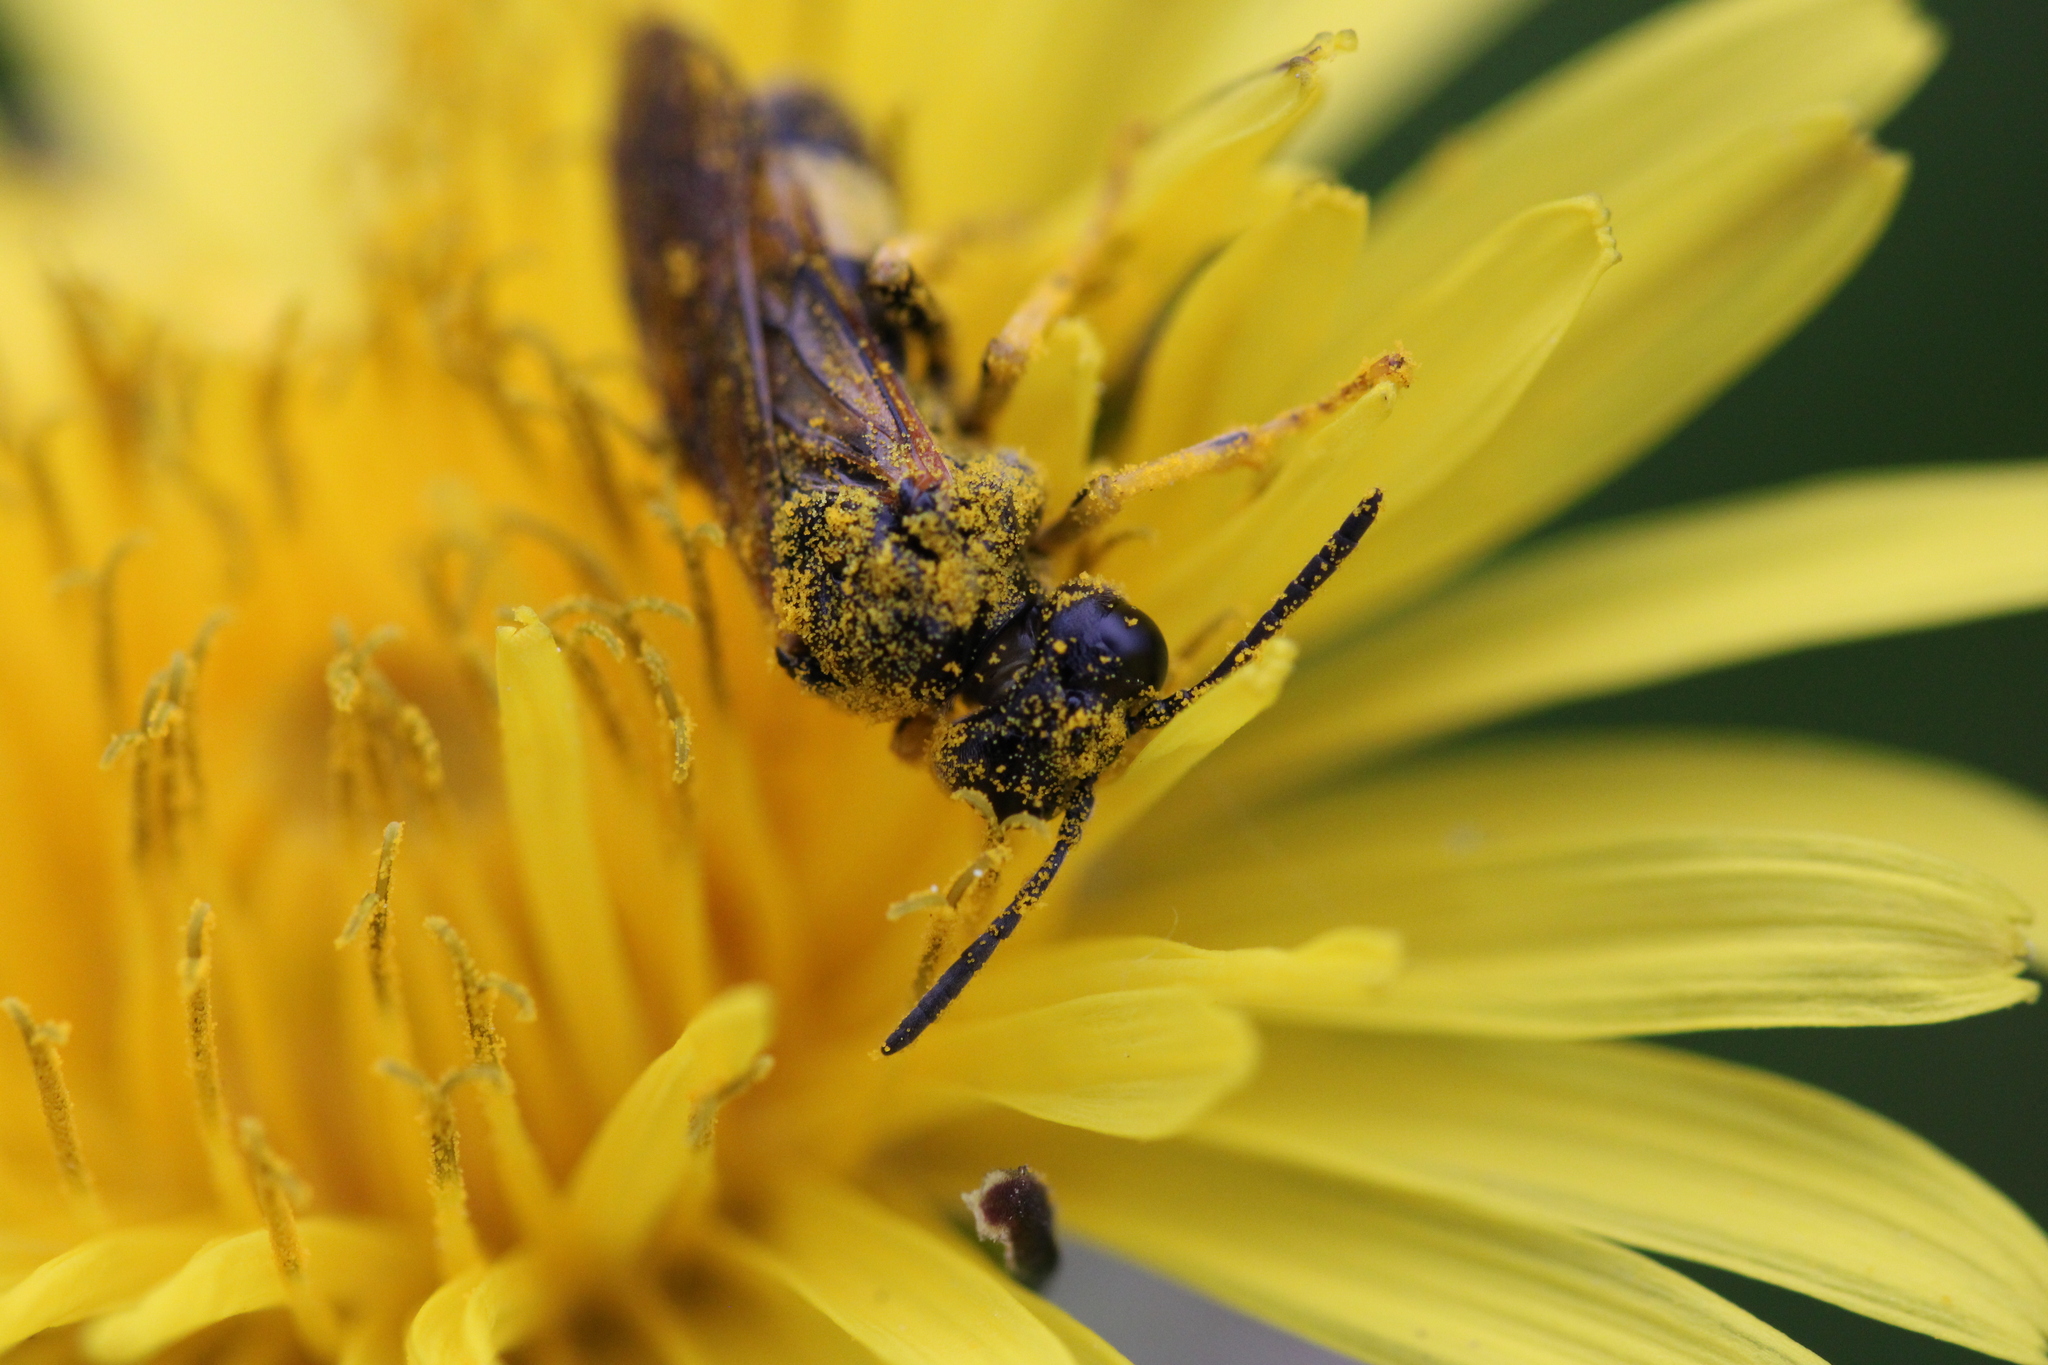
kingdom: Animalia
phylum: Arthropoda
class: Insecta
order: Hymenoptera
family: Tenthredinidae
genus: Paratenthredo
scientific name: Paratenthredo frauenfeldii
